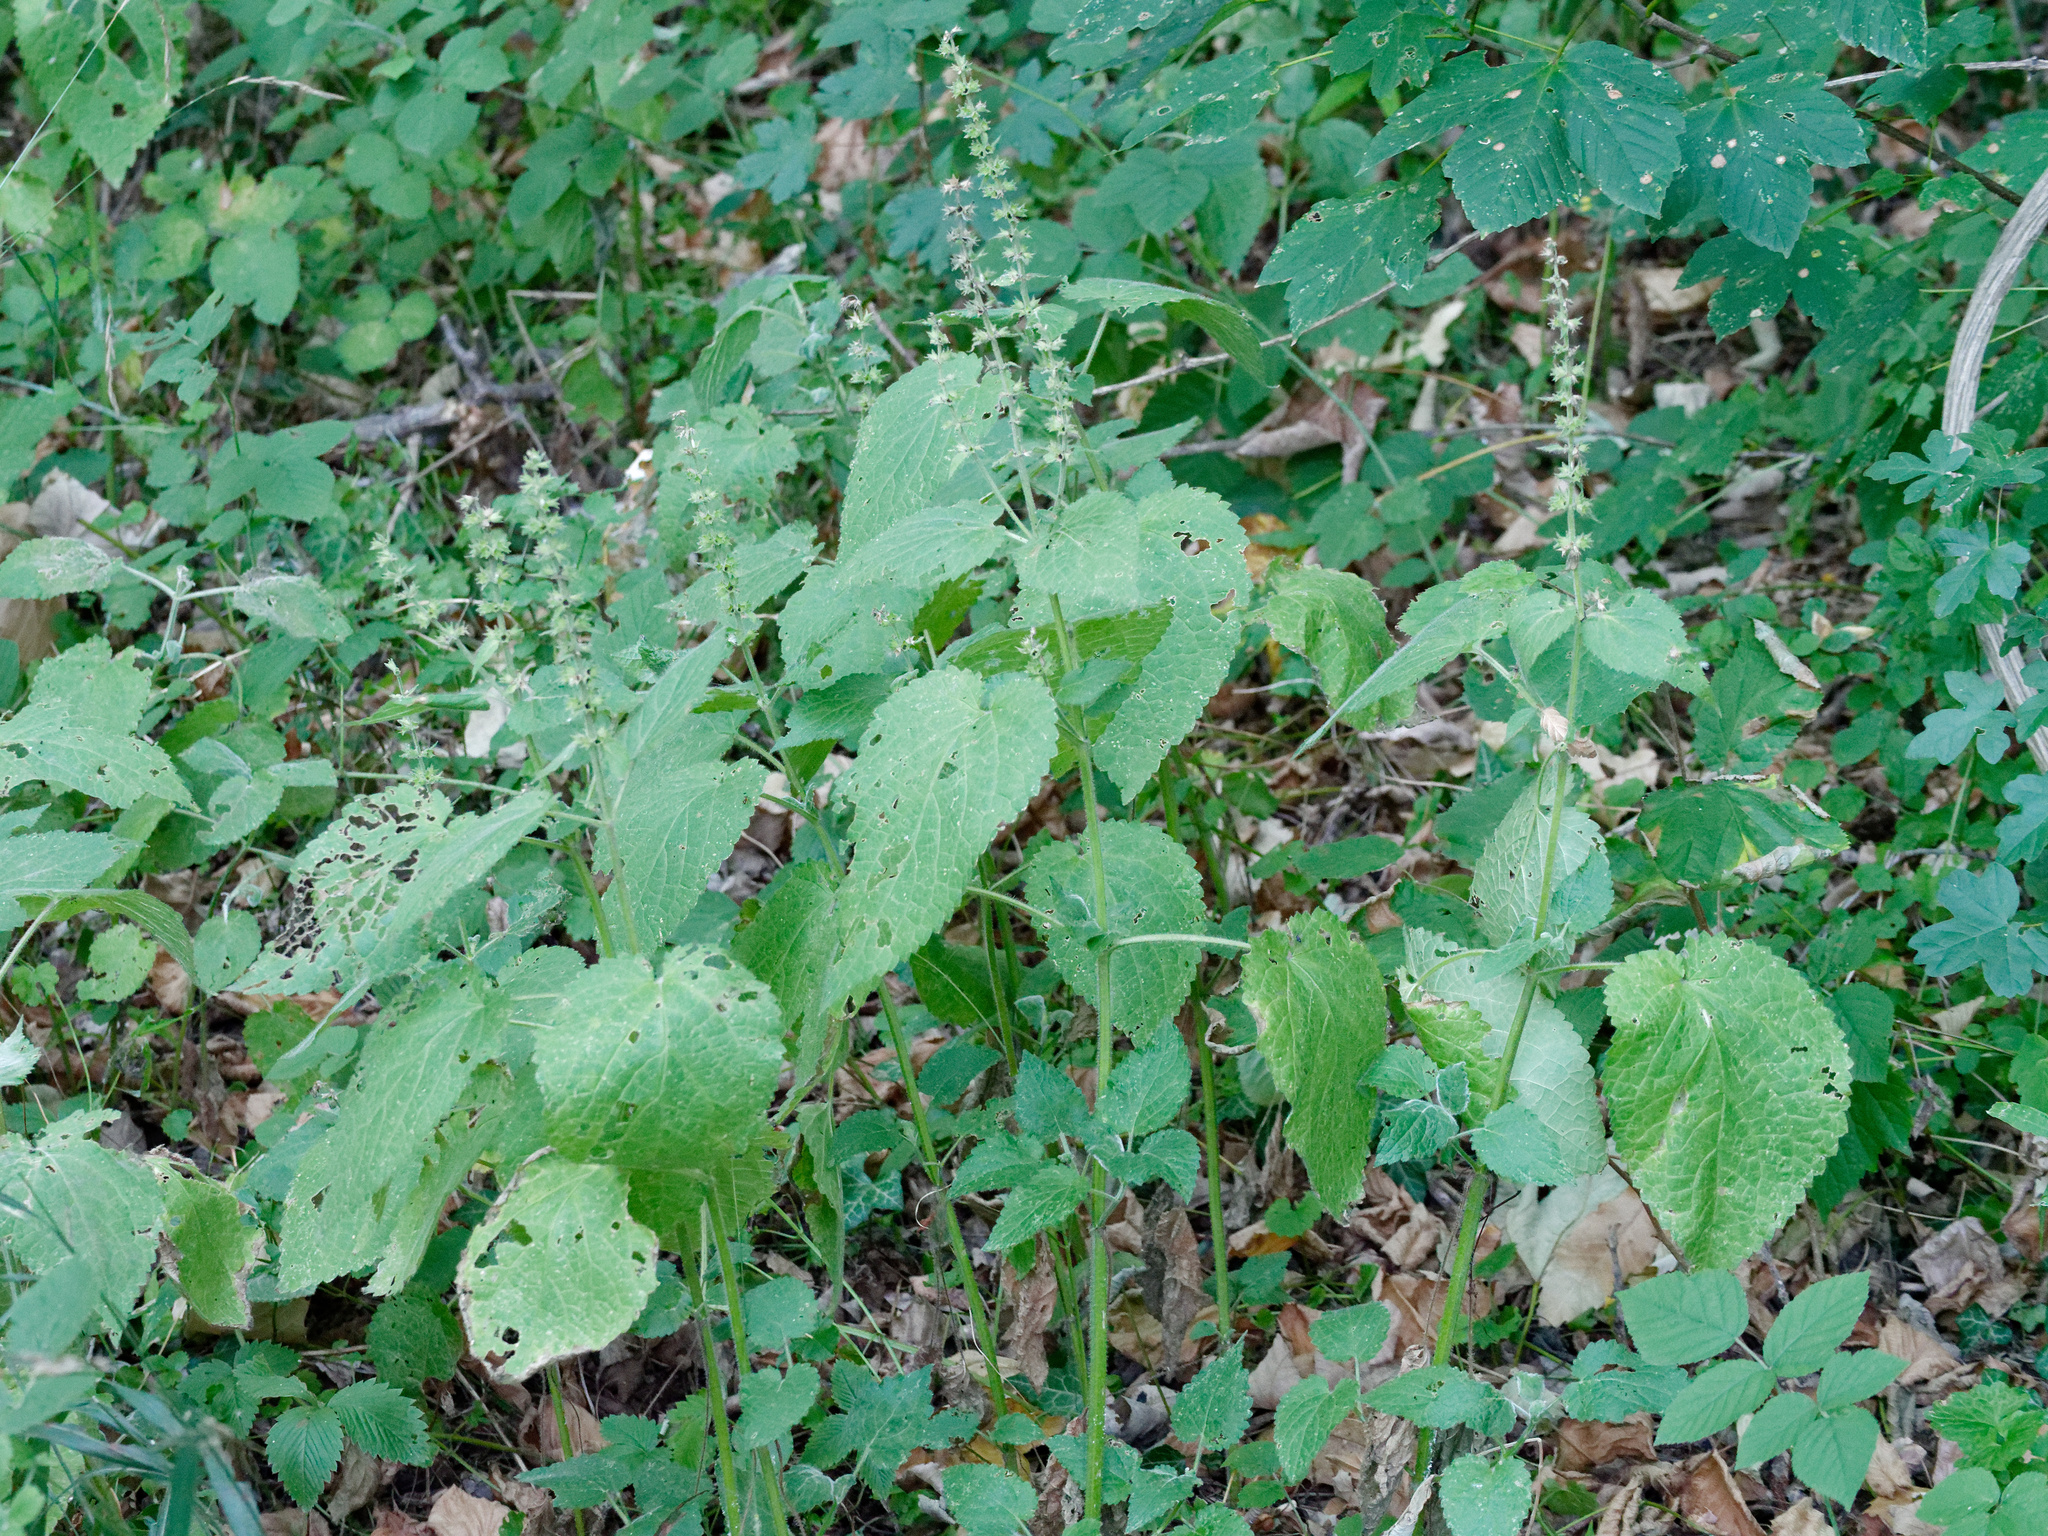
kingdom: Plantae
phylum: Tracheophyta
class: Magnoliopsida
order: Lamiales
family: Lamiaceae
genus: Stachys
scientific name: Stachys sylvatica
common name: Hedge woundwort
